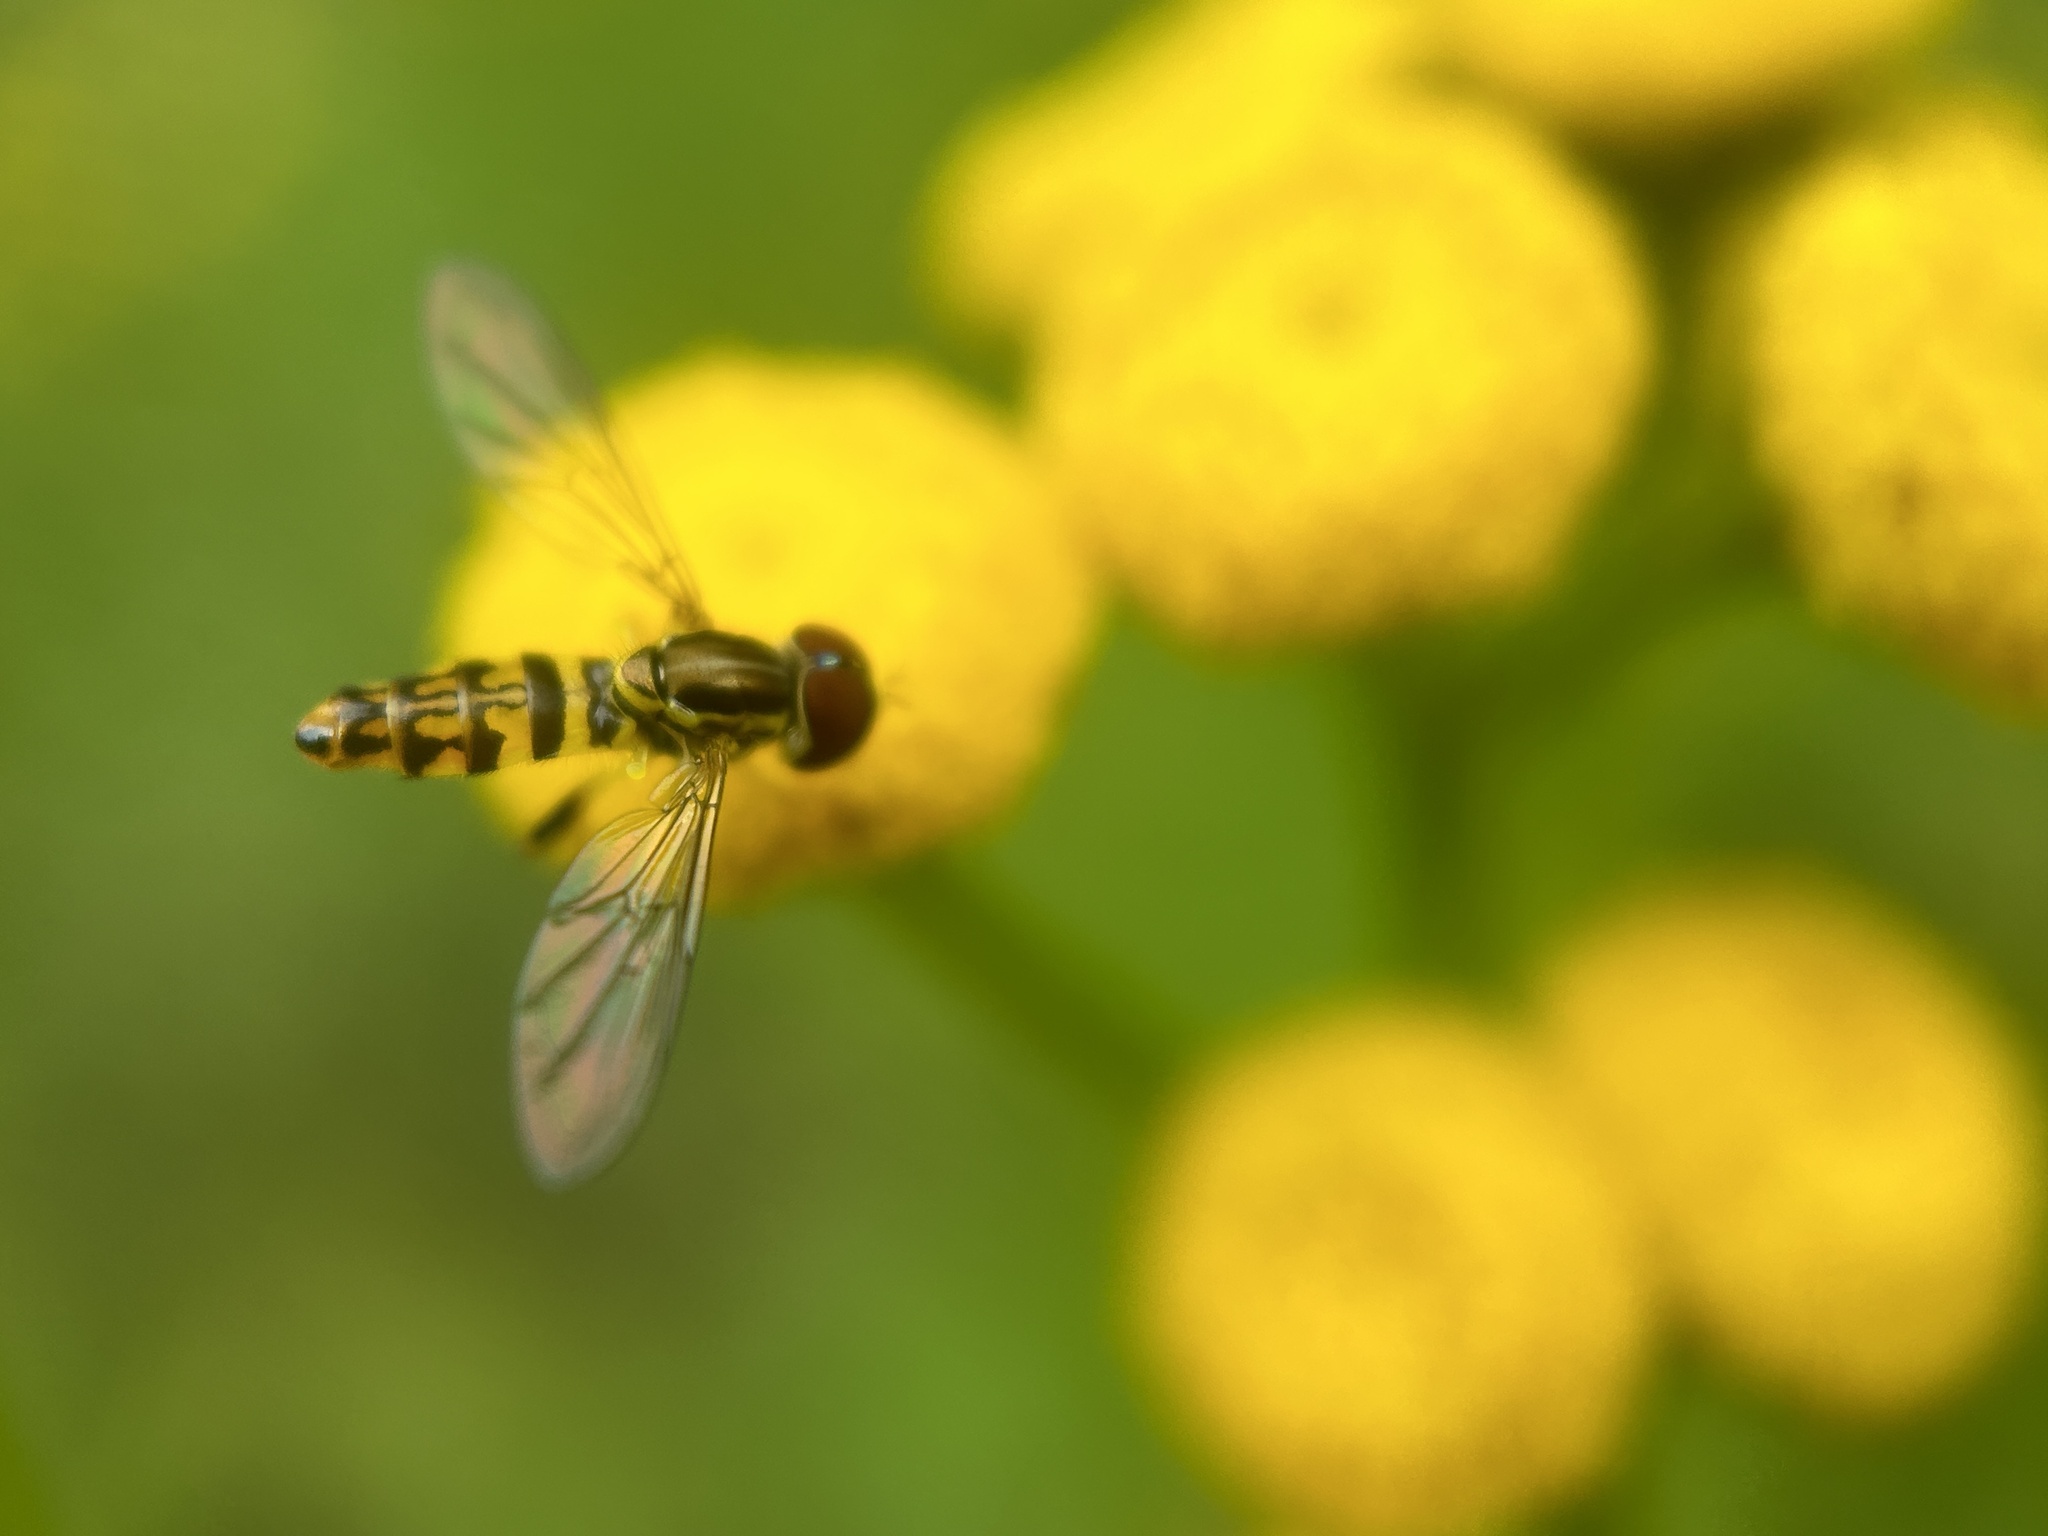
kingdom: Animalia
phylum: Arthropoda
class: Insecta
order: Diptera
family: Syrphidae
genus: Toxomerus
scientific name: Toxomerus geminatus
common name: Eastern calligrapher
